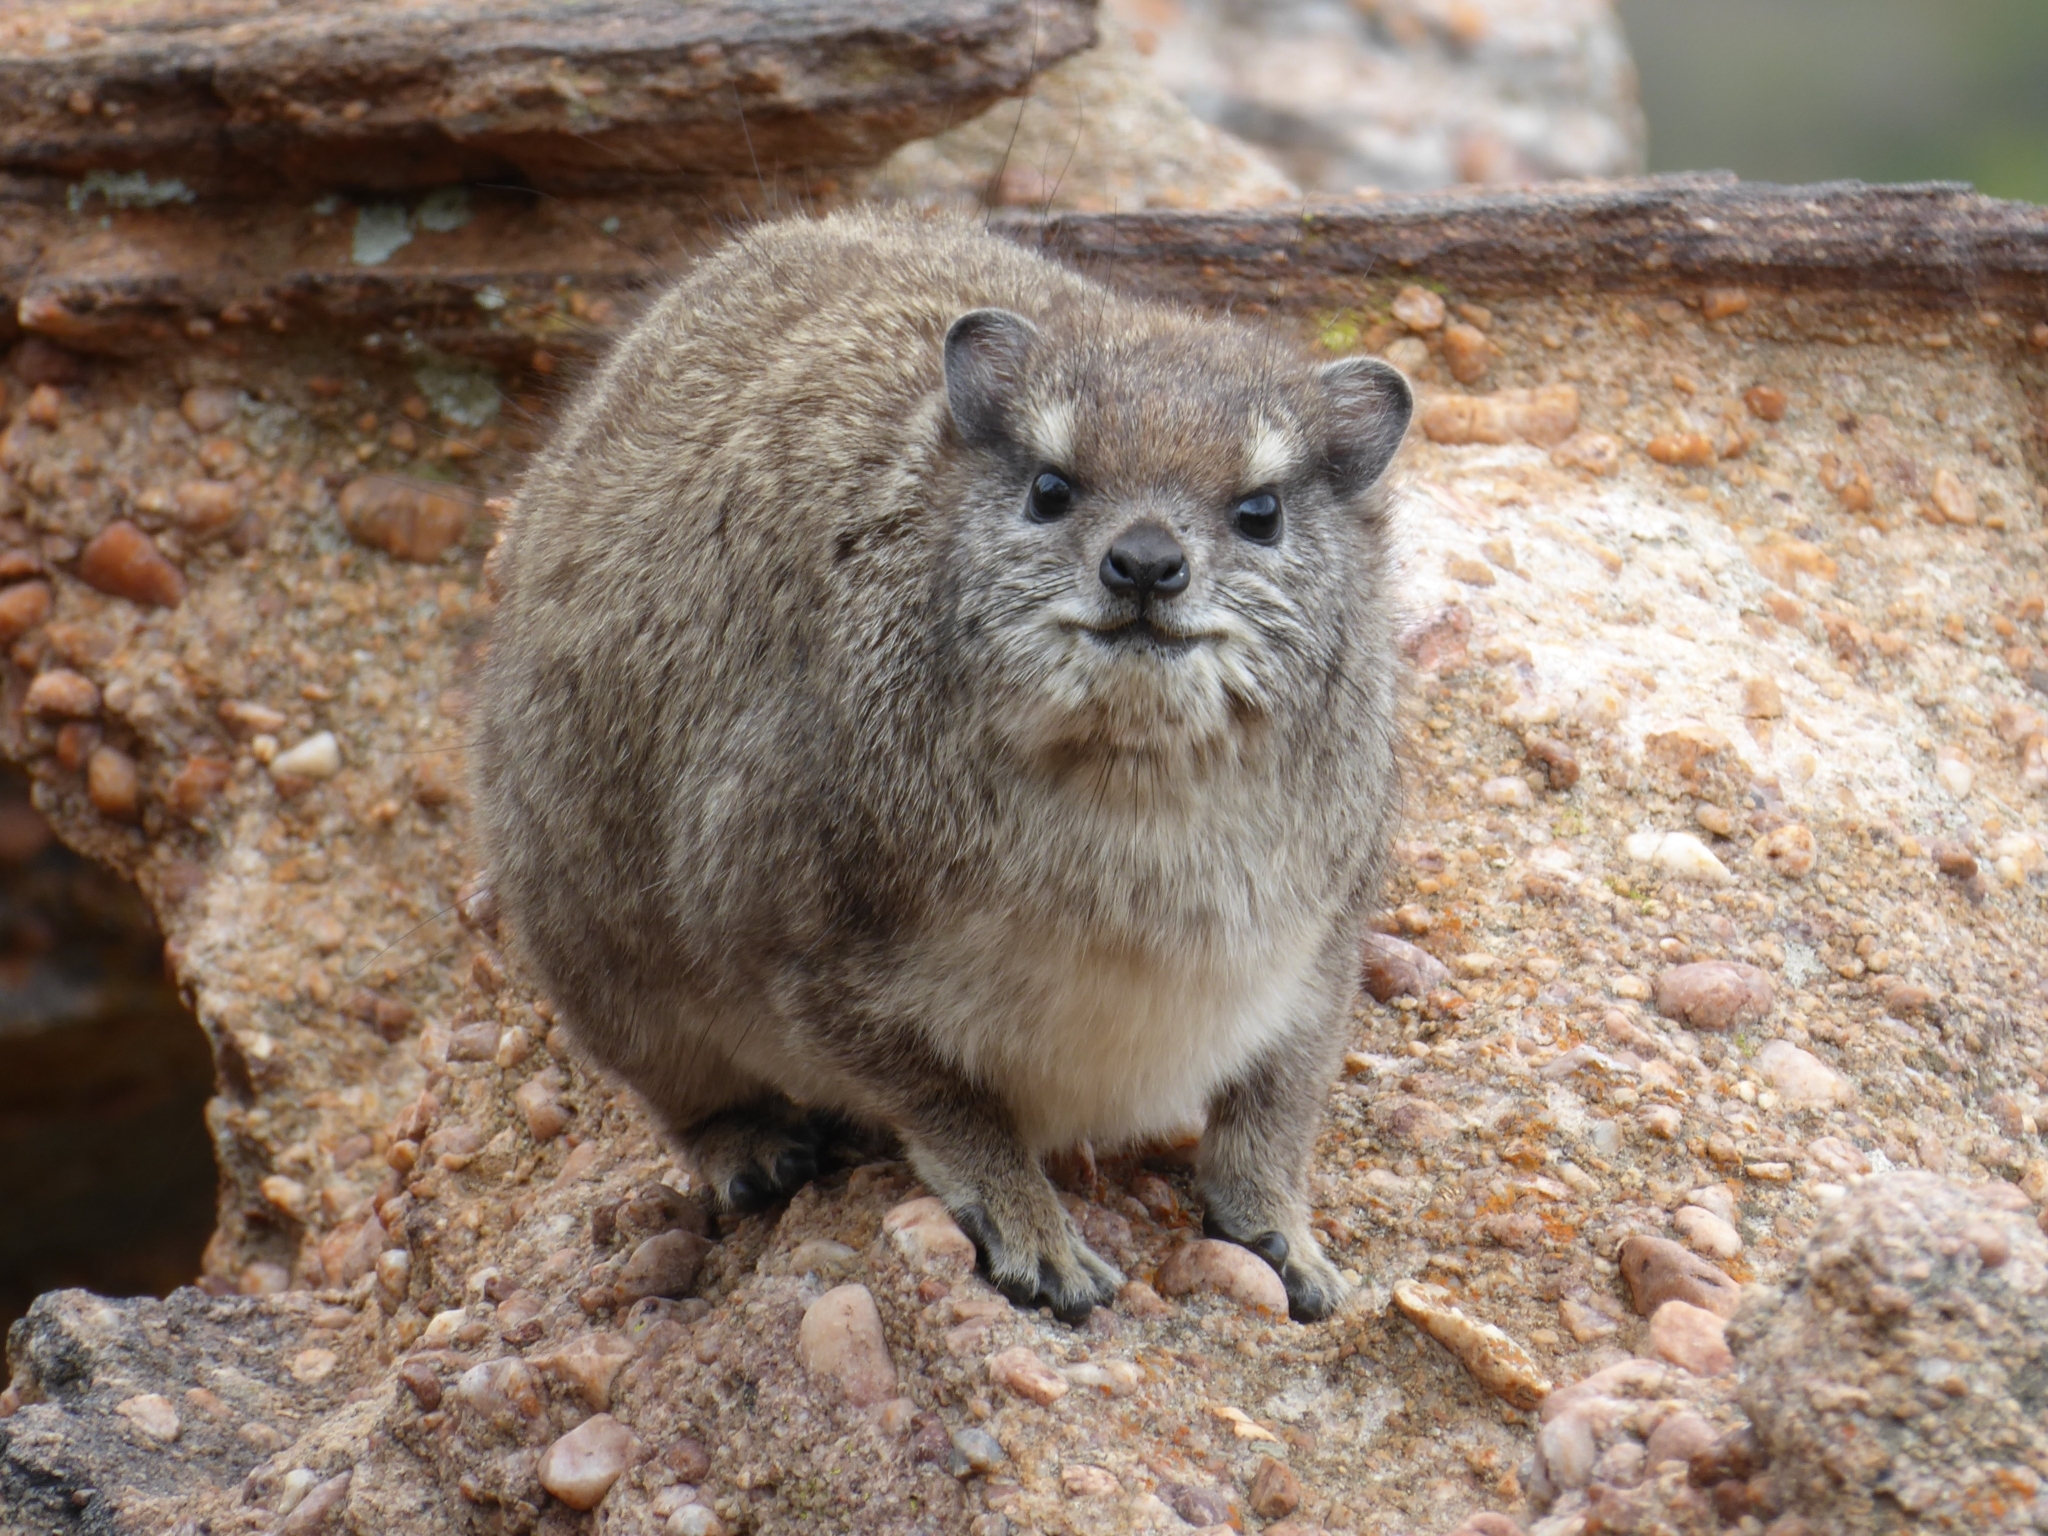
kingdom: Animalia
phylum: Chordata
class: Mammalia
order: Hyracoidea
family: Procaviidae
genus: Procavia
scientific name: Procavia capensis
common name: Rock hyrax
